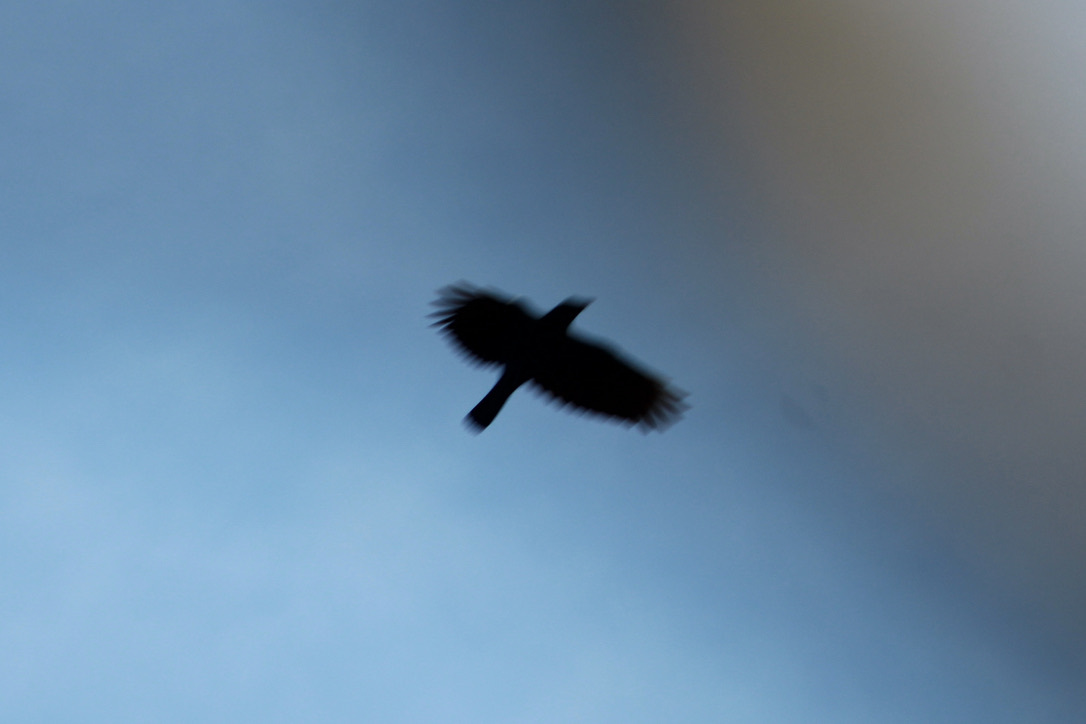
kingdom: Animalia
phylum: Chordata
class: Aves
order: Passeriformes
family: Corvidae
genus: Corvus
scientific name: Corvus brachyrhynchos
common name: American crow
